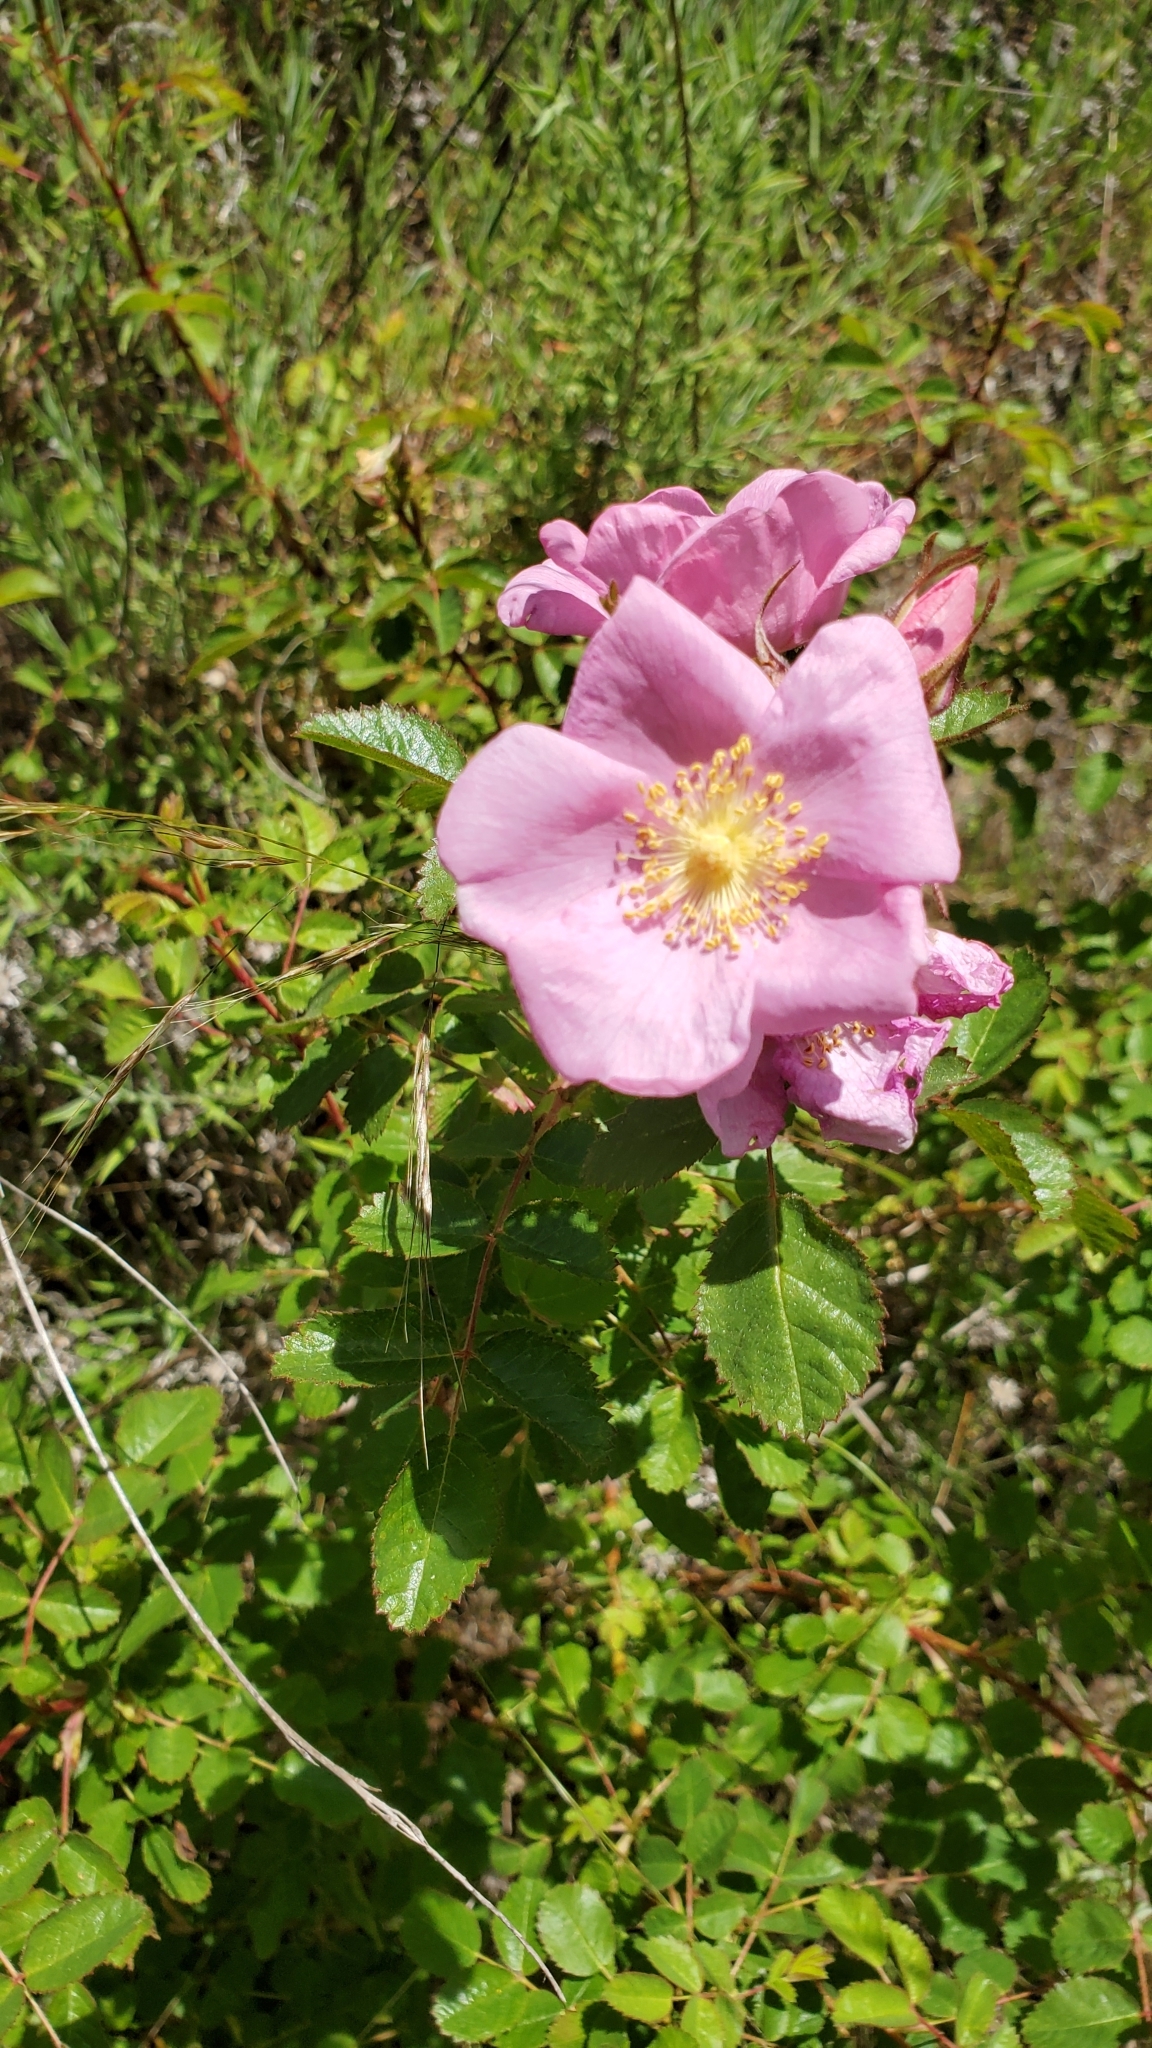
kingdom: Plantae
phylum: Tracheophyta
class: Magnoliopsida
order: Rosales
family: Rosaceae
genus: Rosa
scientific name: Rosa californica
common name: California rose
